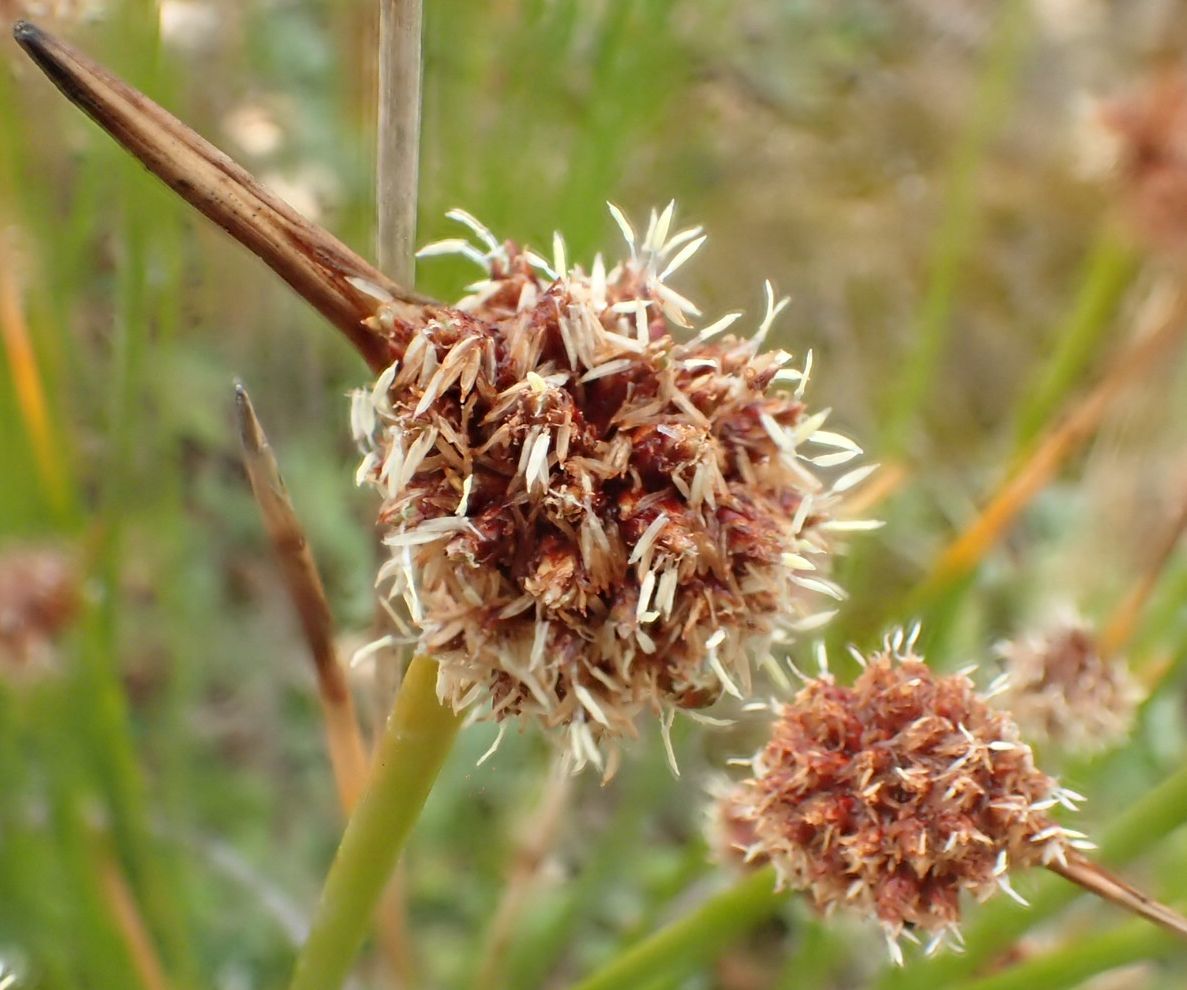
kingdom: Plantae
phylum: Tracheophyta
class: Liliopsida
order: Poales
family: Cyperaceae
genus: Ficinia
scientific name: Ficinia nodosa
